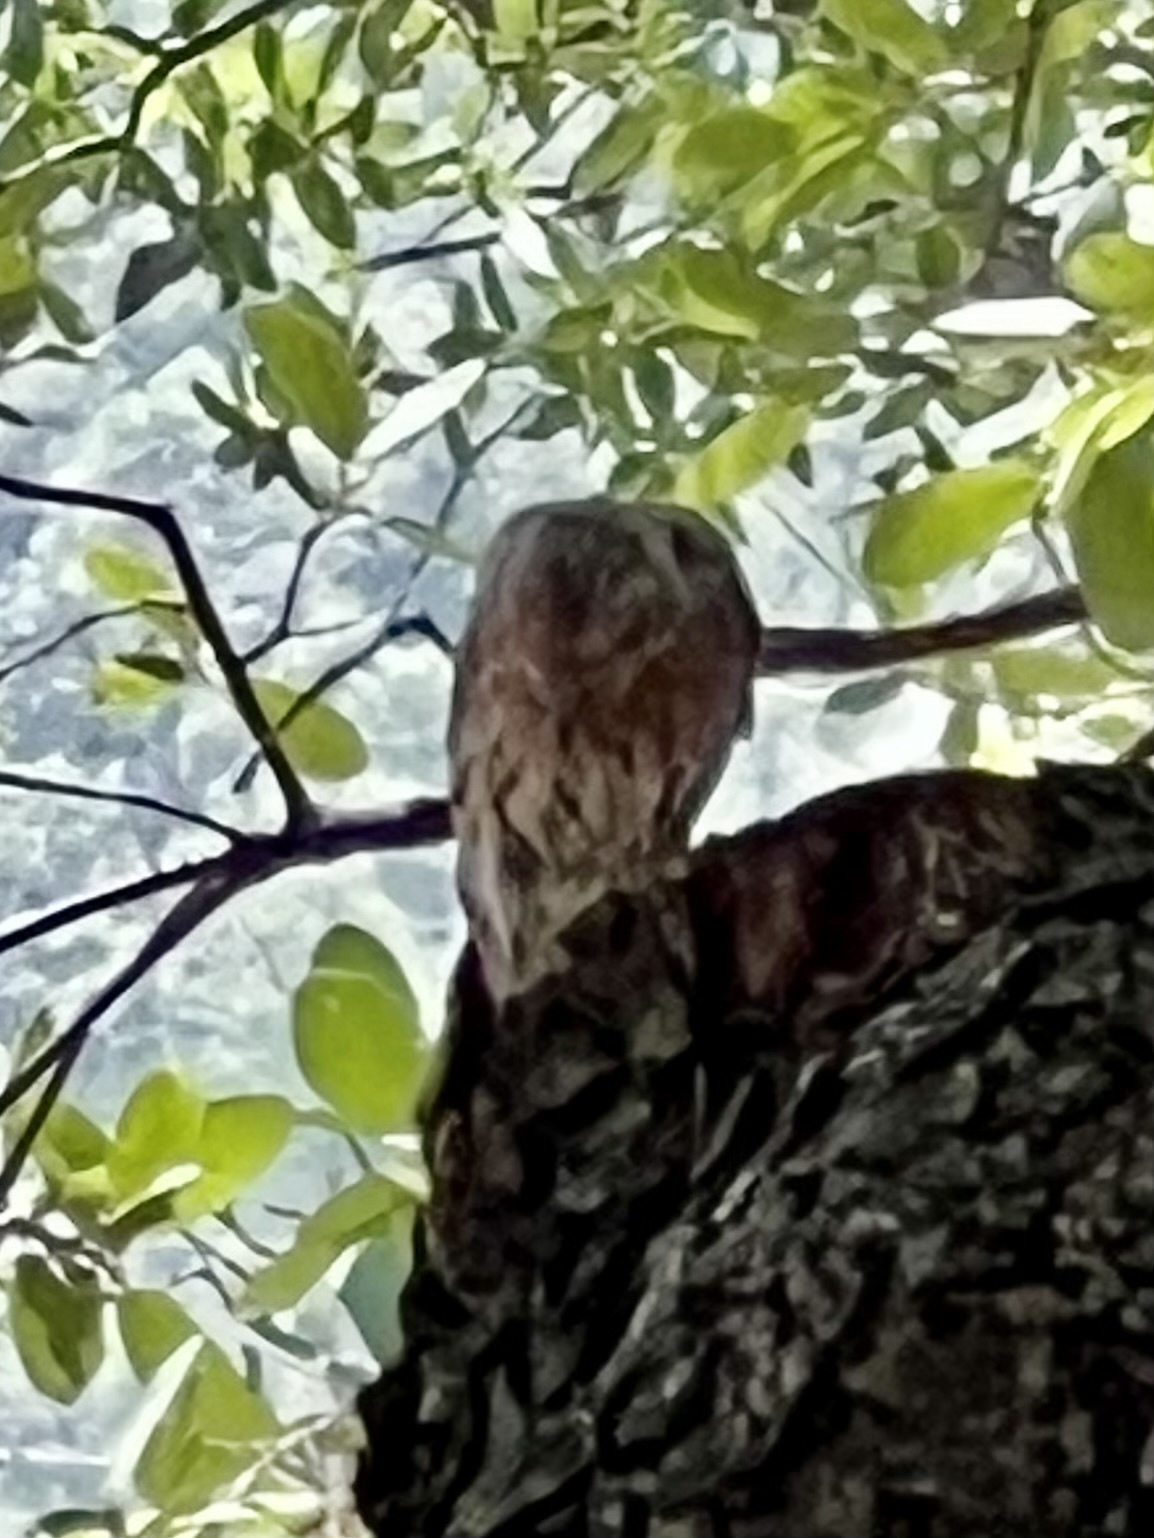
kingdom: Animalia
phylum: Chordata
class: Aves
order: Passeriformes
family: Fringillidae
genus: Haemorhous
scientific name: Haemorhous mexicanus
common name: House finch
